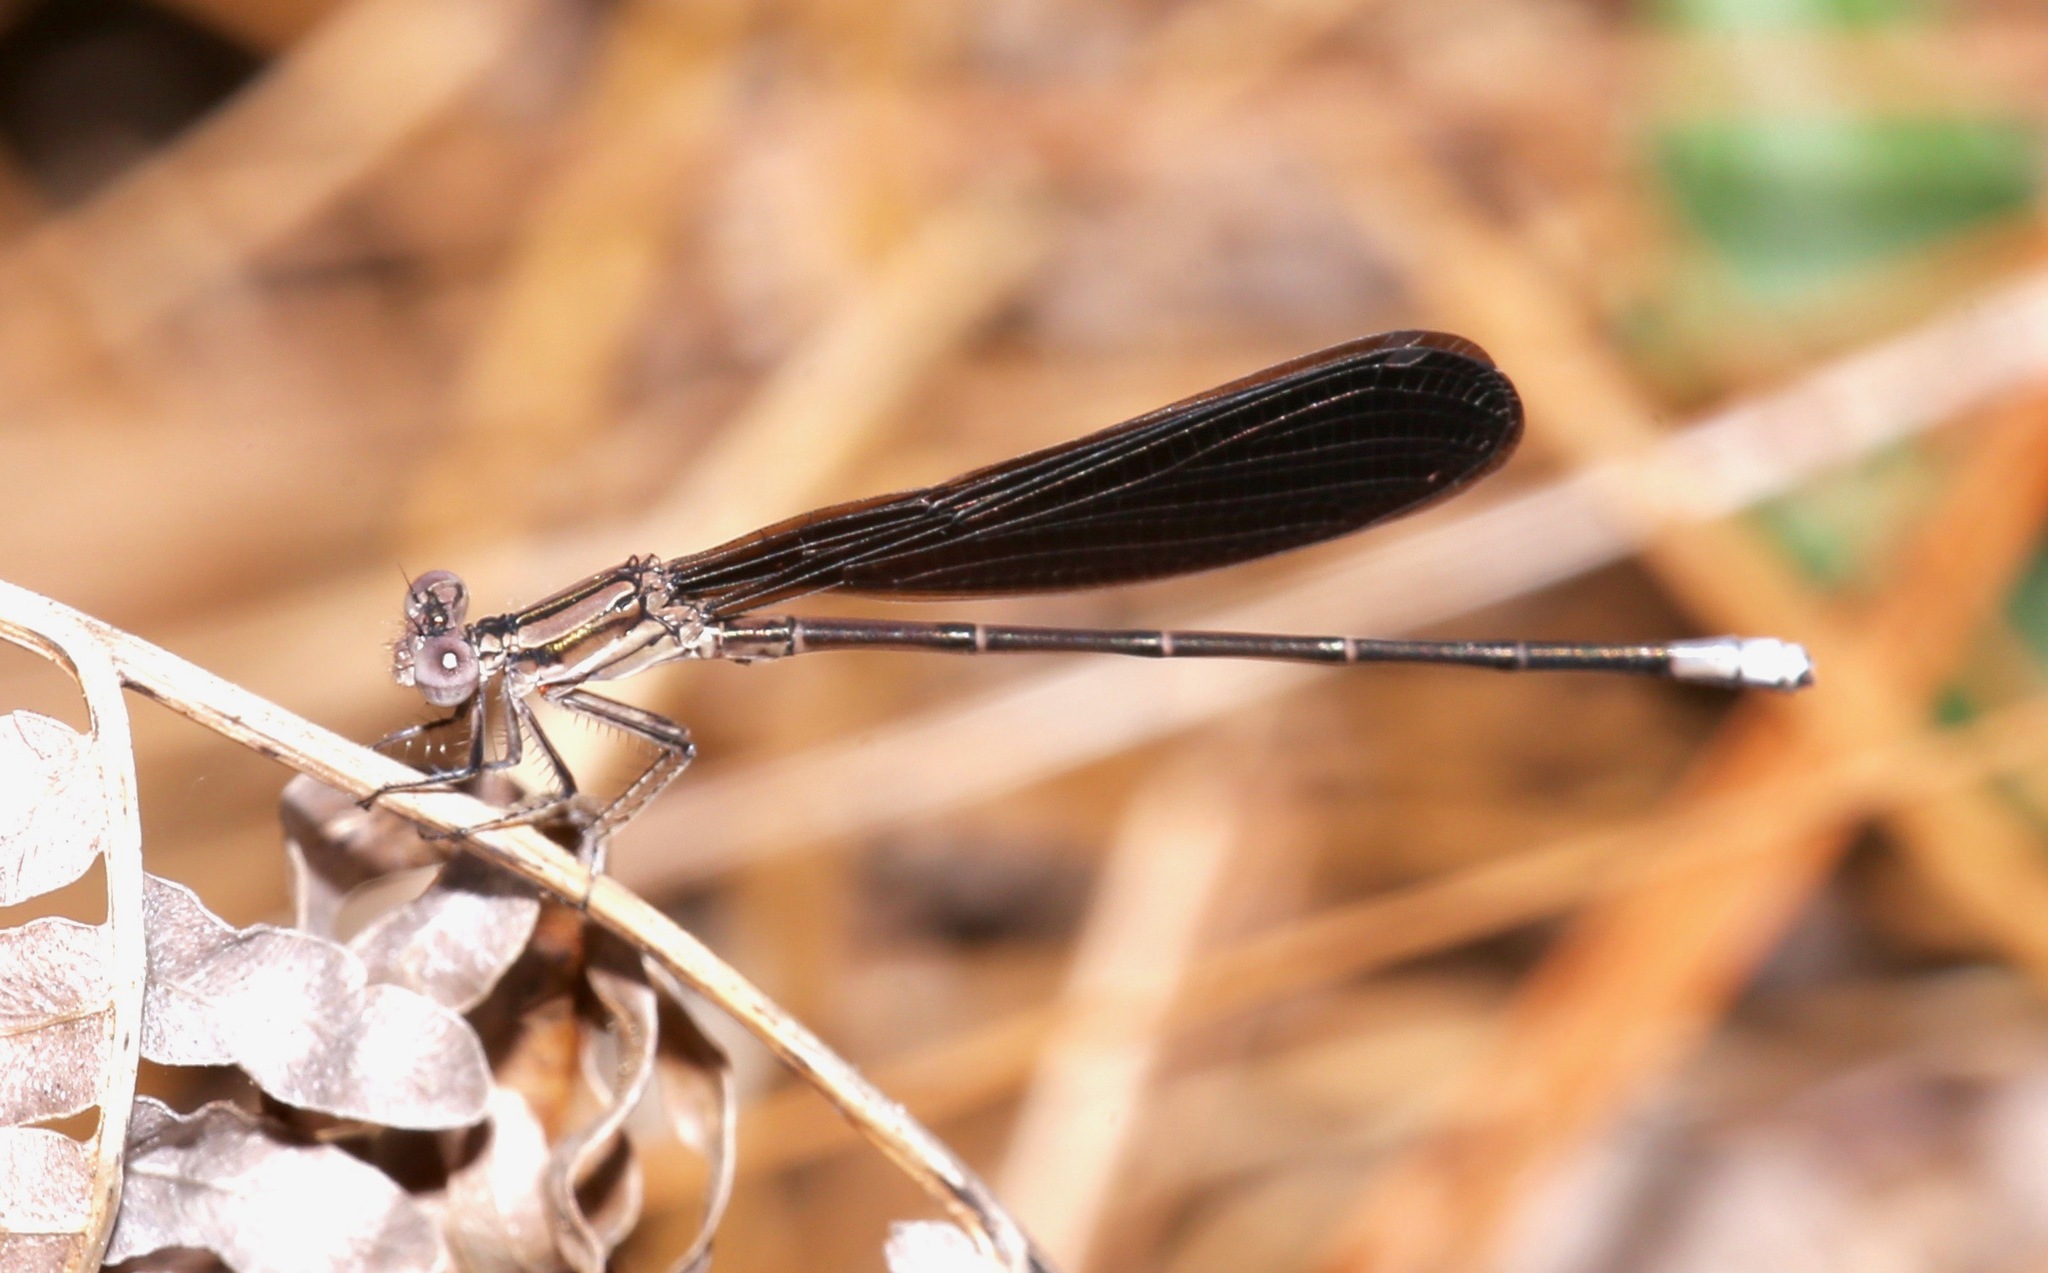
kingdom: Animalia
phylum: Arthropoda
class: Insecta
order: Odonata
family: Coenagrionidae
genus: Argia
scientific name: Argia fumipennis
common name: Variable dancer
